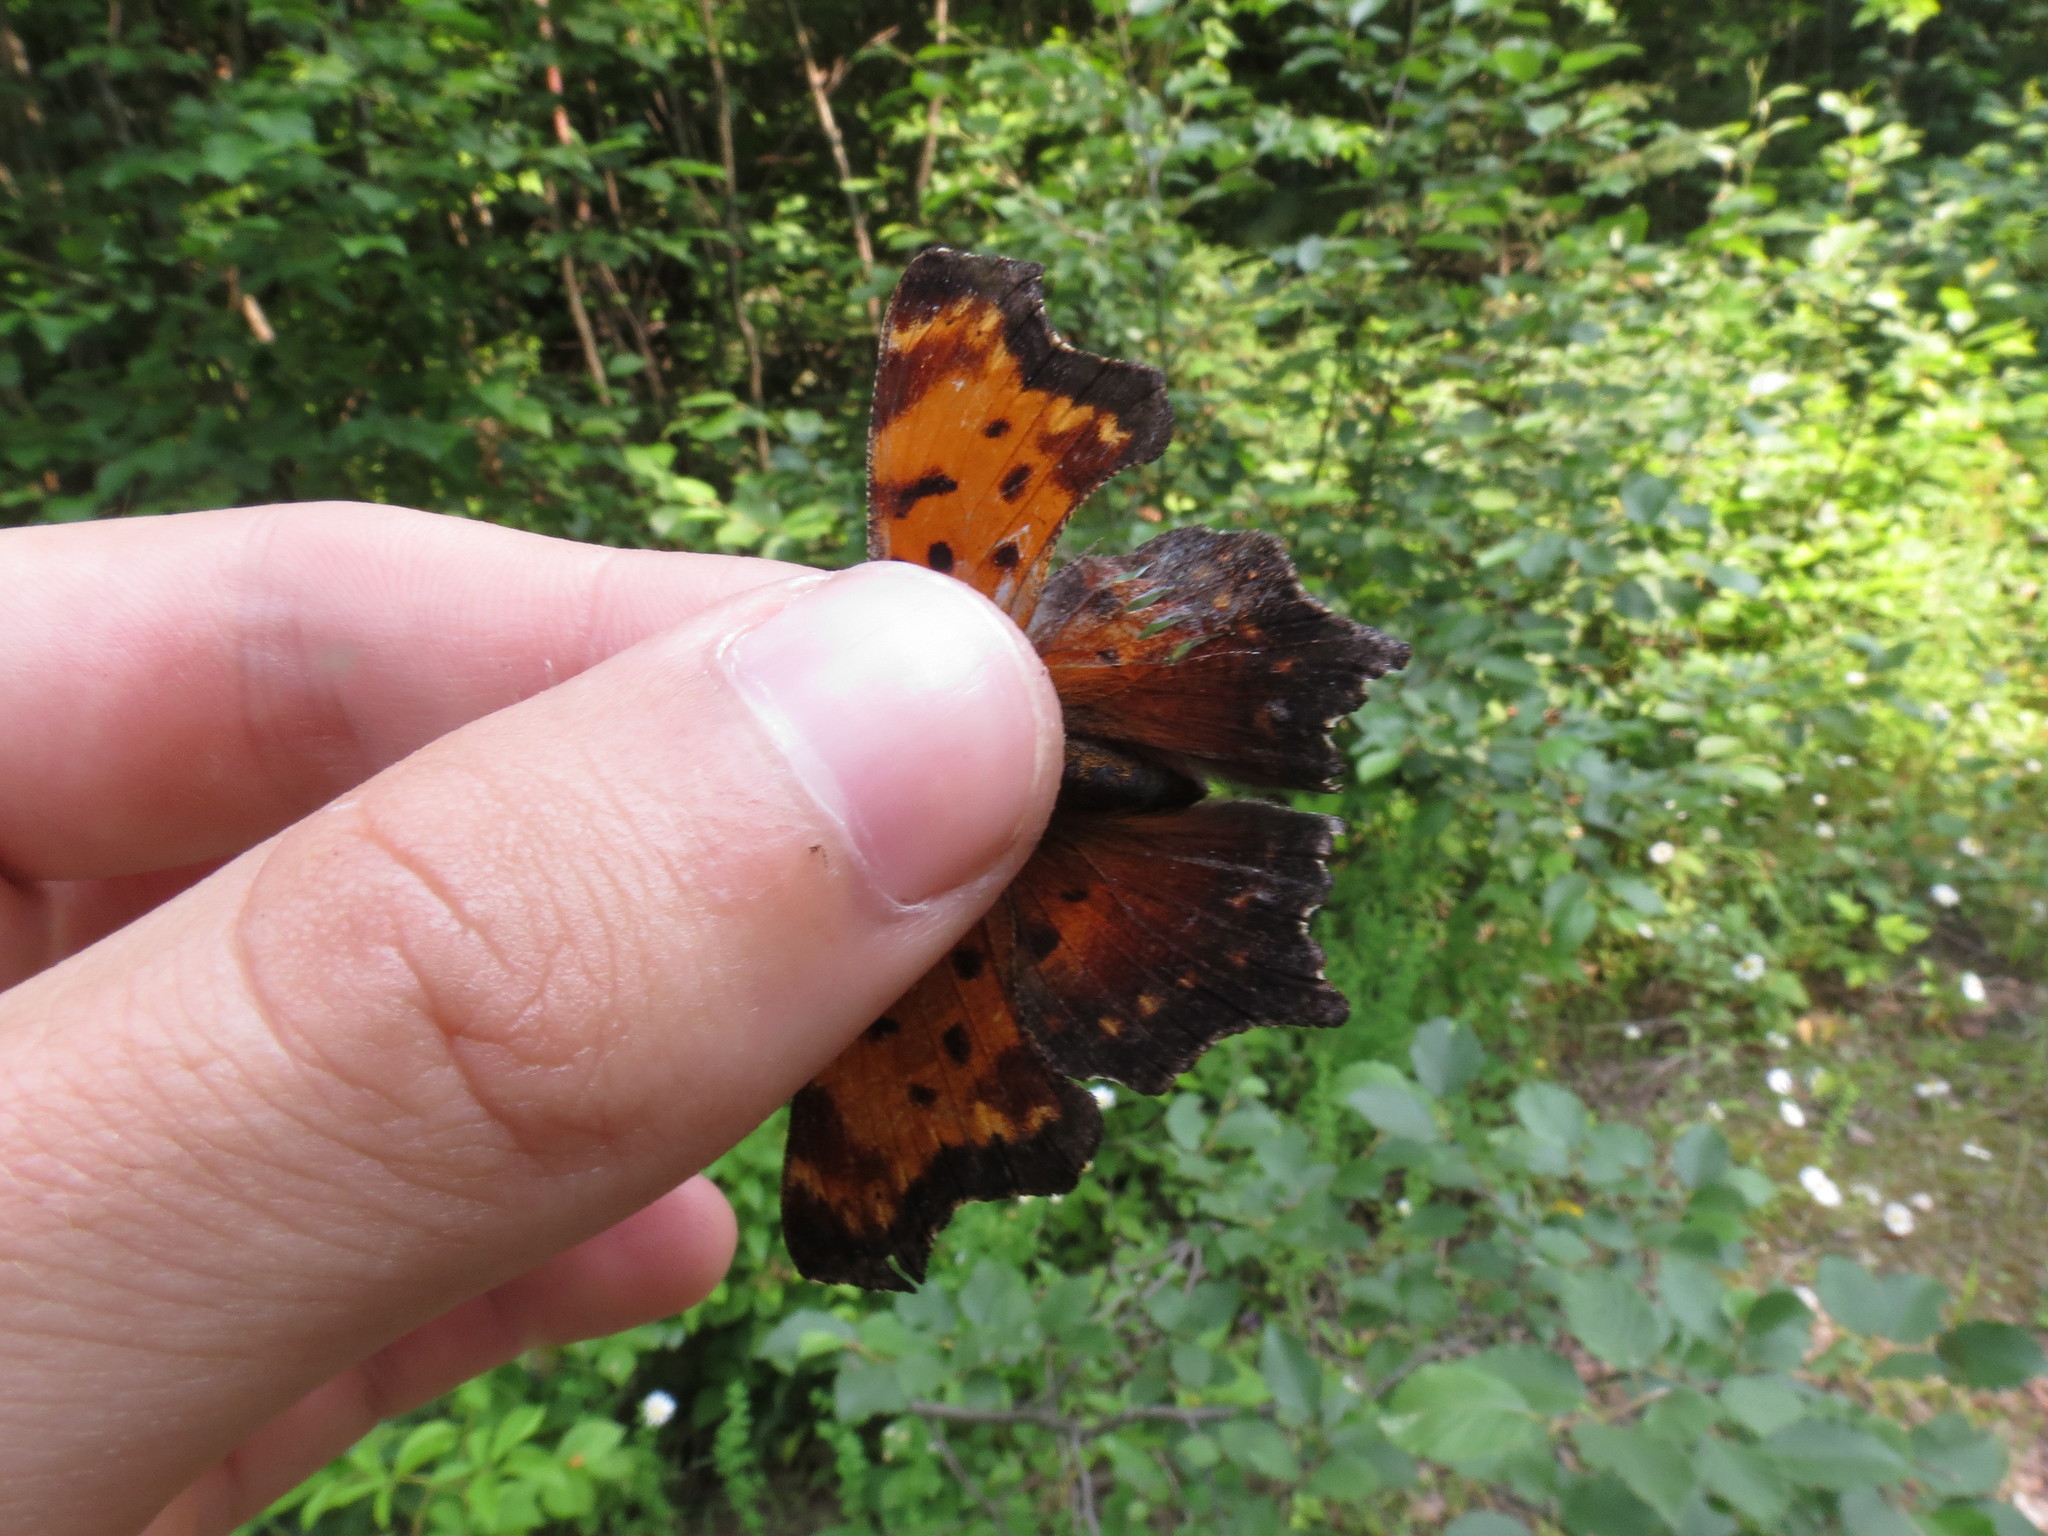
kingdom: Animalia
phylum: Arthropoda
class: Insecta
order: Lepidoptera
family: Nymphalidae
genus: Polygonia
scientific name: Polygonia progne
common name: Gray comma
